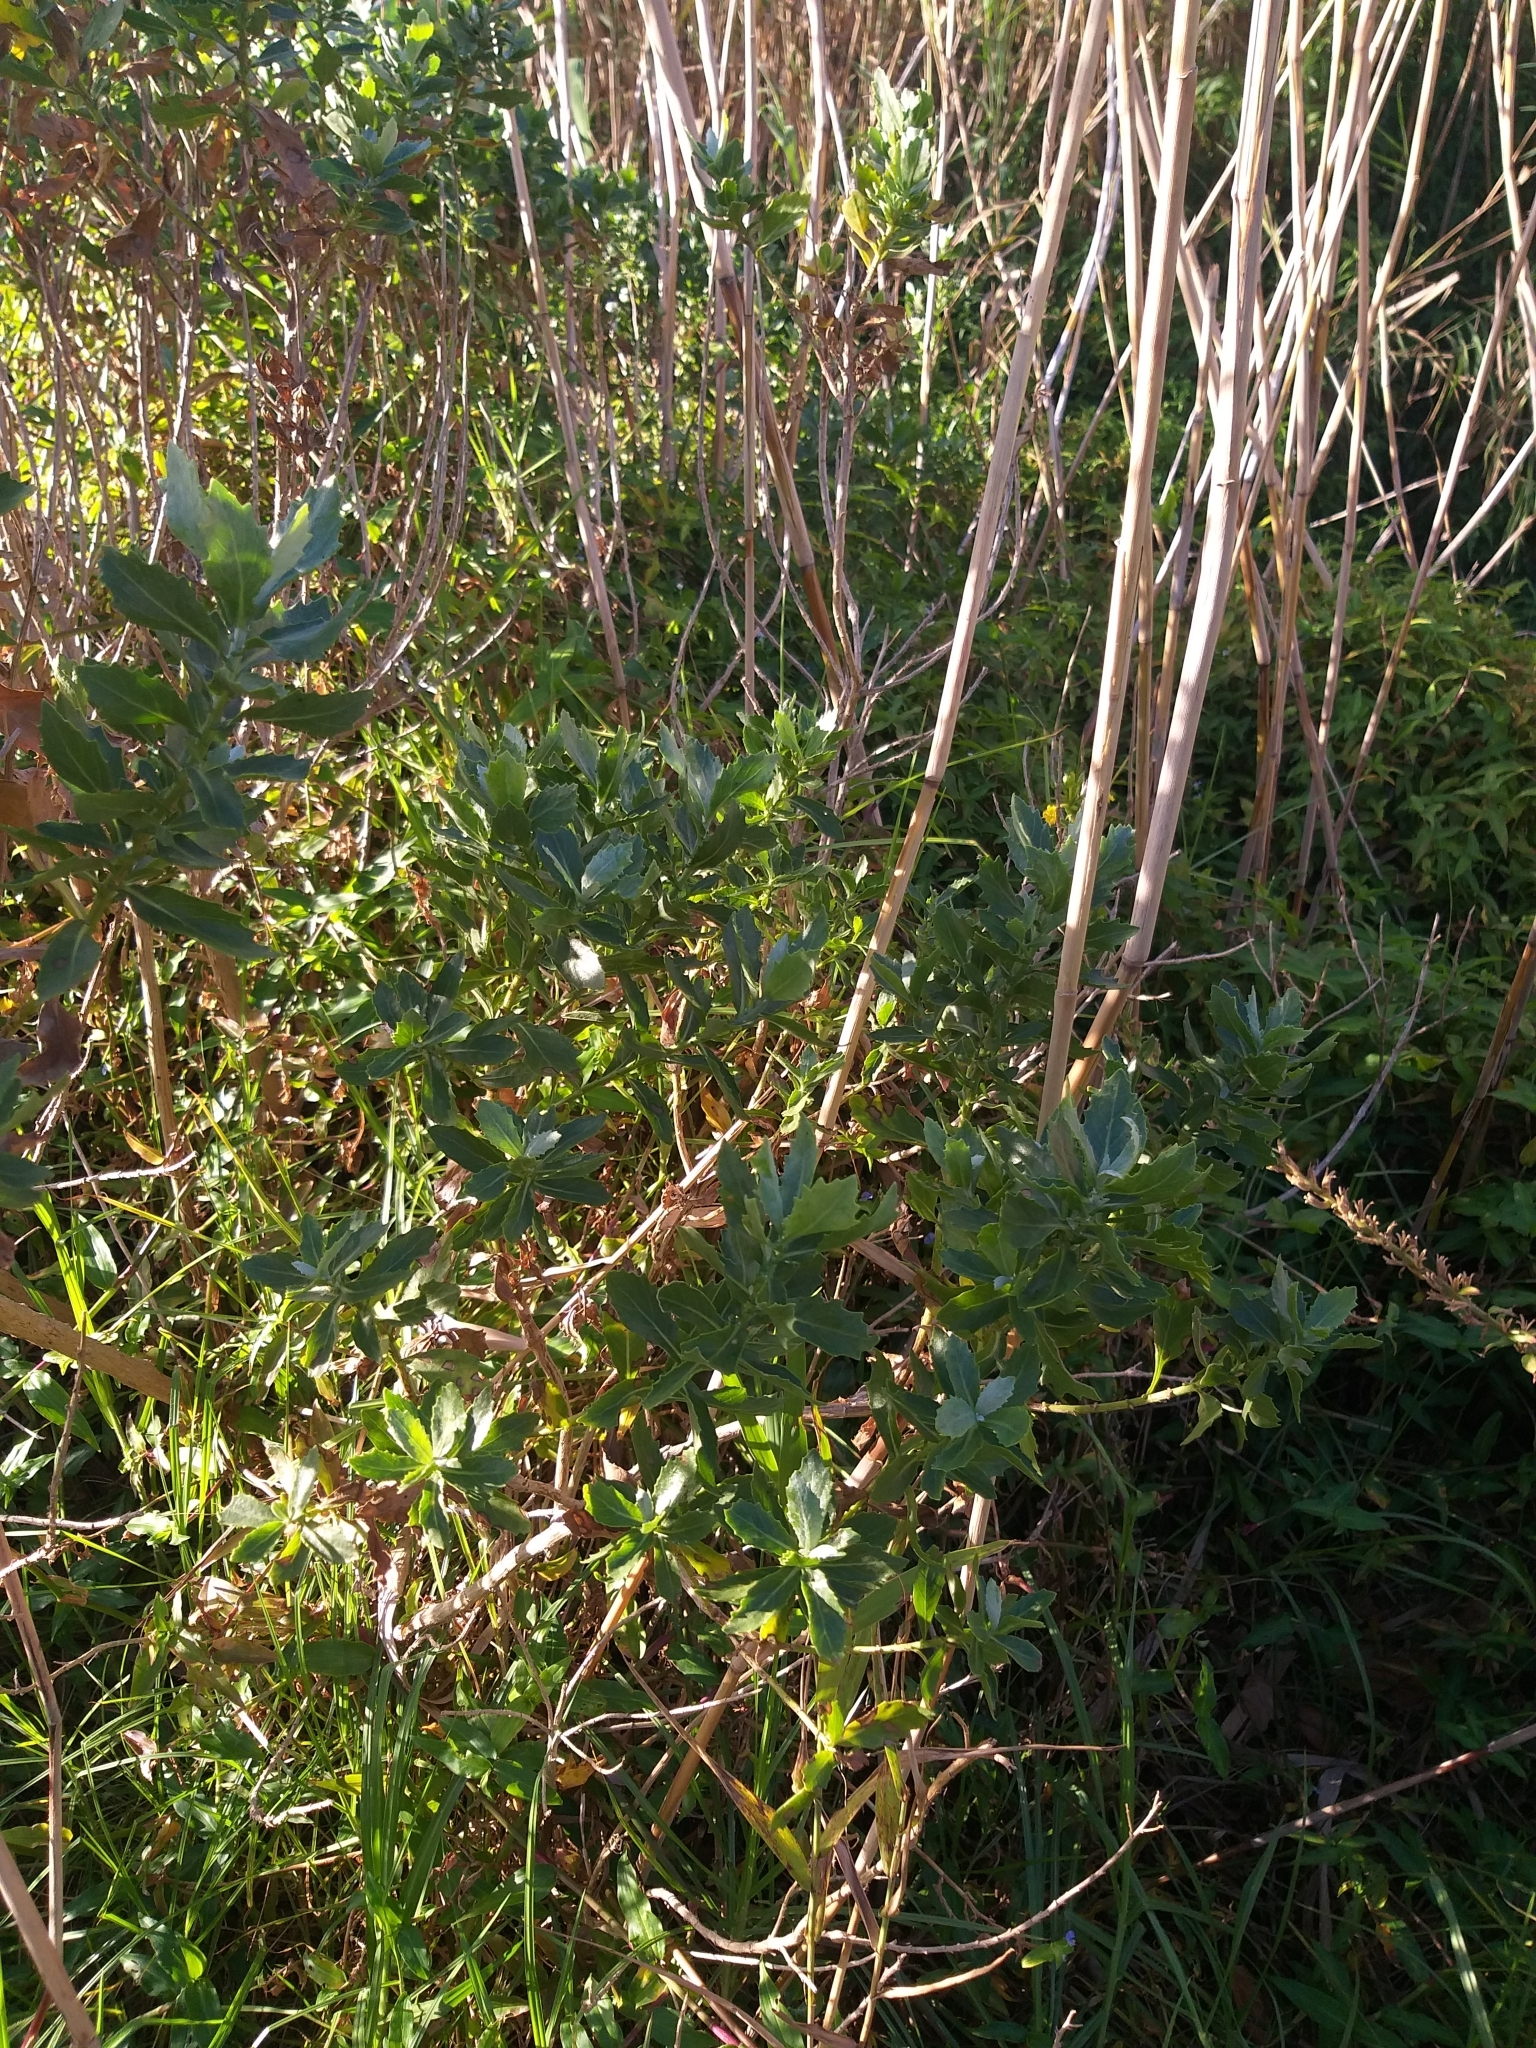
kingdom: Plantae
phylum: Tracheophyta
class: Magnoliopsida
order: Asterales
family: Asteraceae
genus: Senecio
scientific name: Senecio halimifolius
